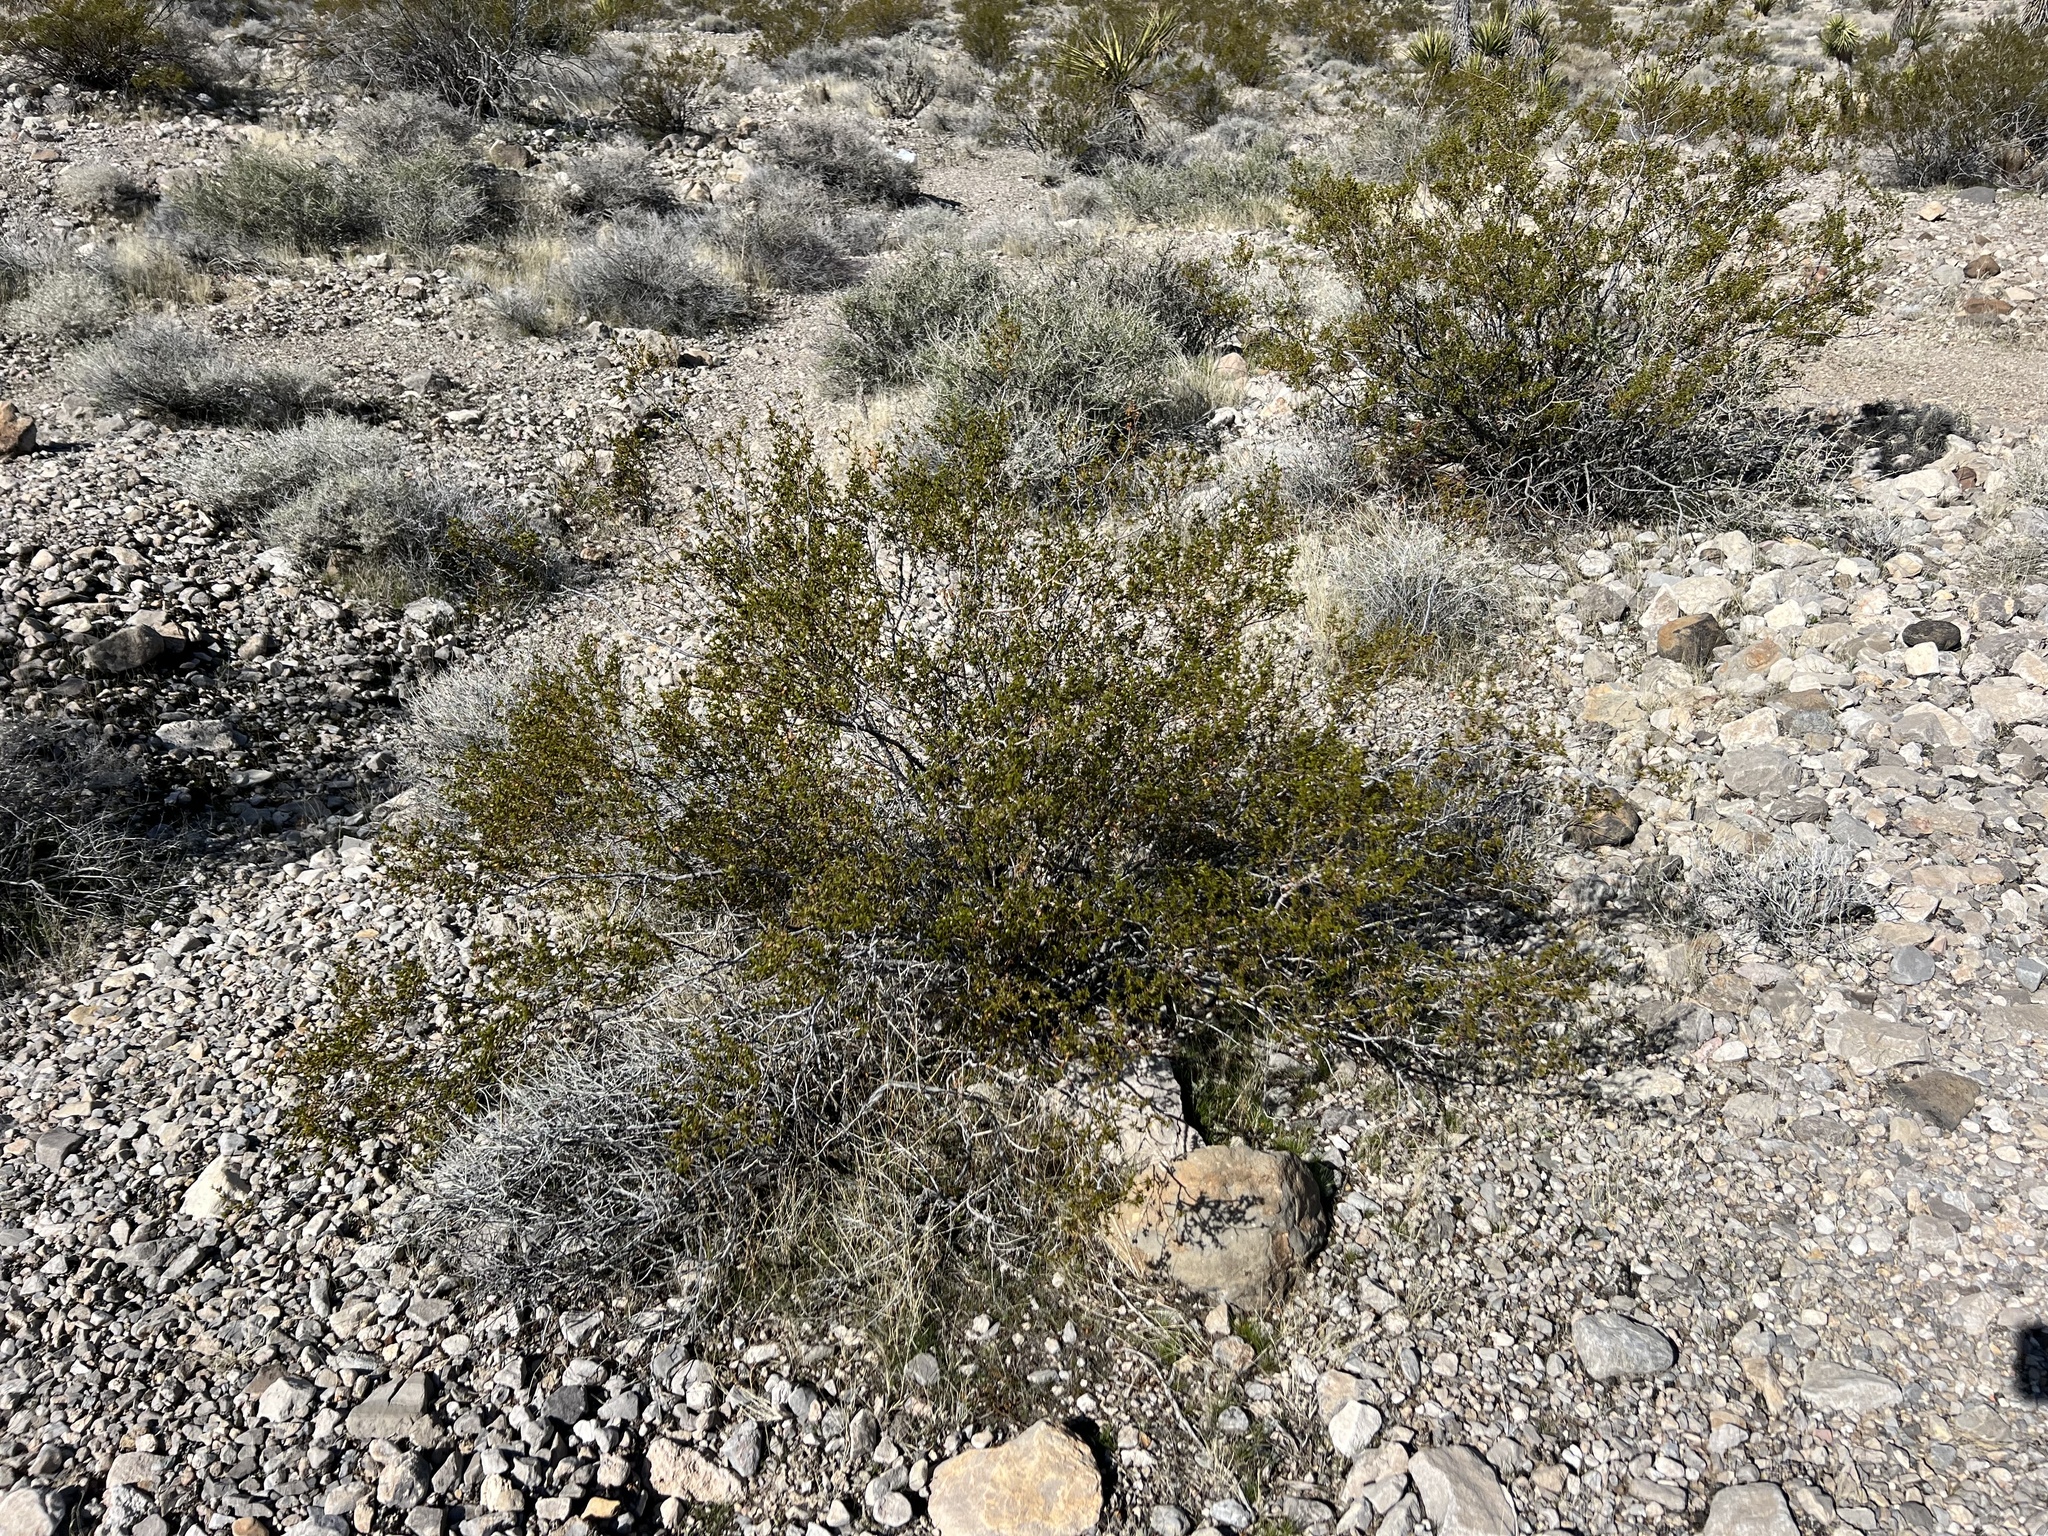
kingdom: Plantae
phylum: Tracheophyta
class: Magnoliopsida
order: Zygophyllales
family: Zygophyllaceae
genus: Larrea
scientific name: Larrea tridentata
